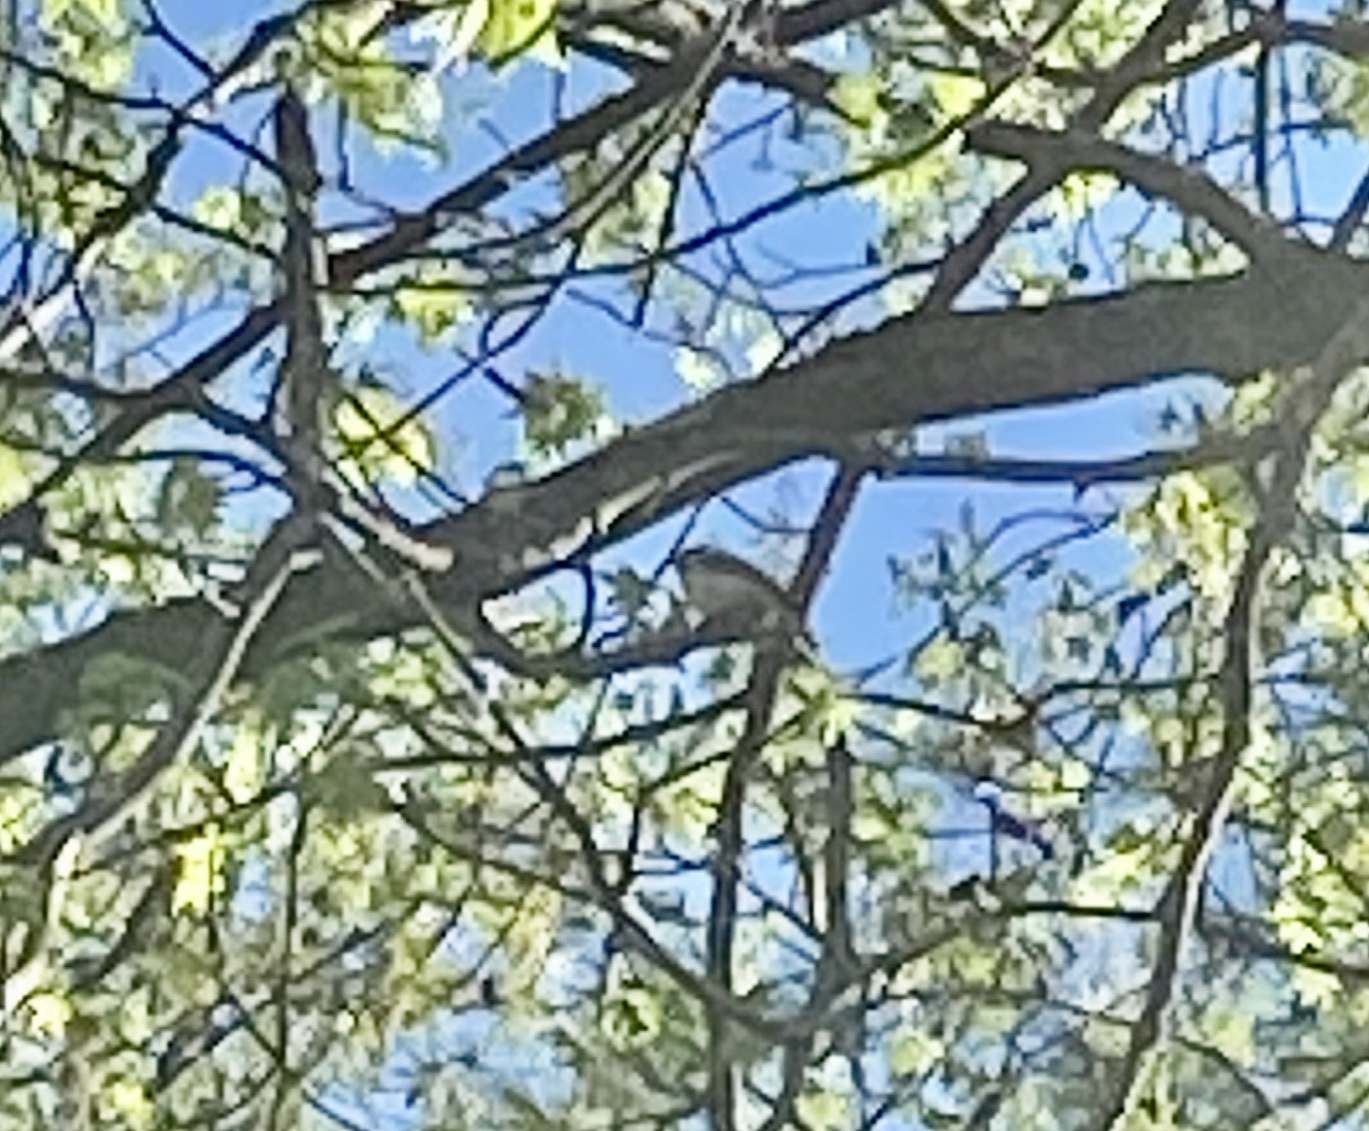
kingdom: Animalia
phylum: Chordata
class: Aves
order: Passeriformes
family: Paridae
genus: Poecile
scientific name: Poecile carolinensis
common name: Carolina chickadee
